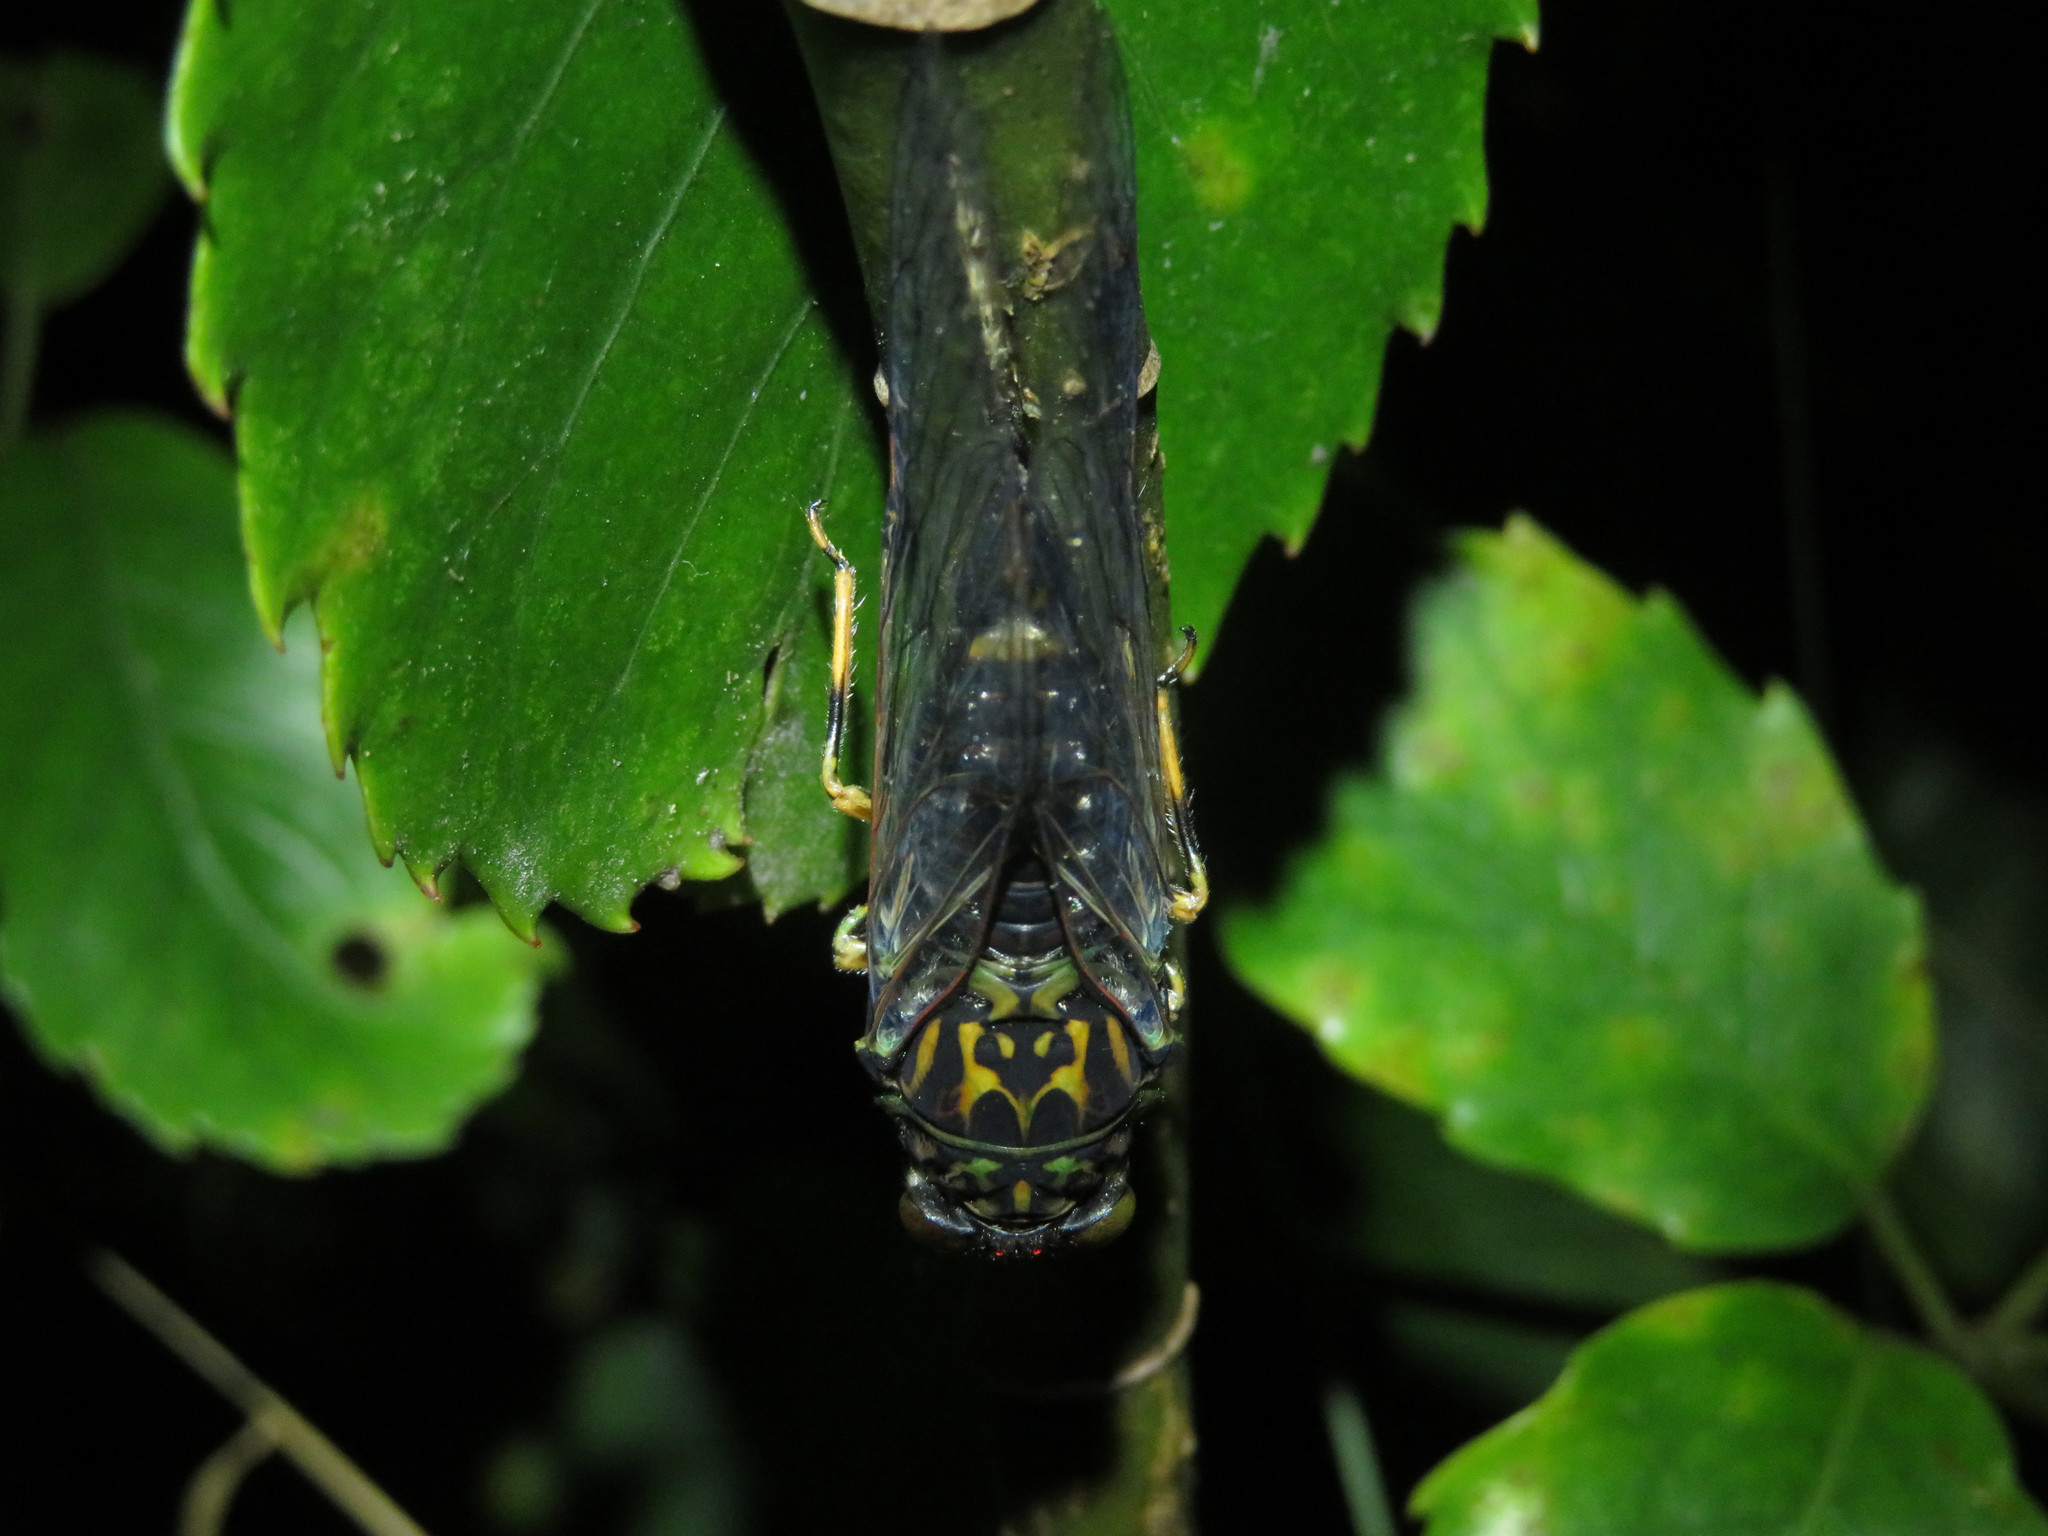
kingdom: Animalia
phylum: Arthropoda
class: Insecta
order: Hemiptera
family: Cicadidae
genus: Amphipsalta
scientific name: Amphipsalta zelandica
